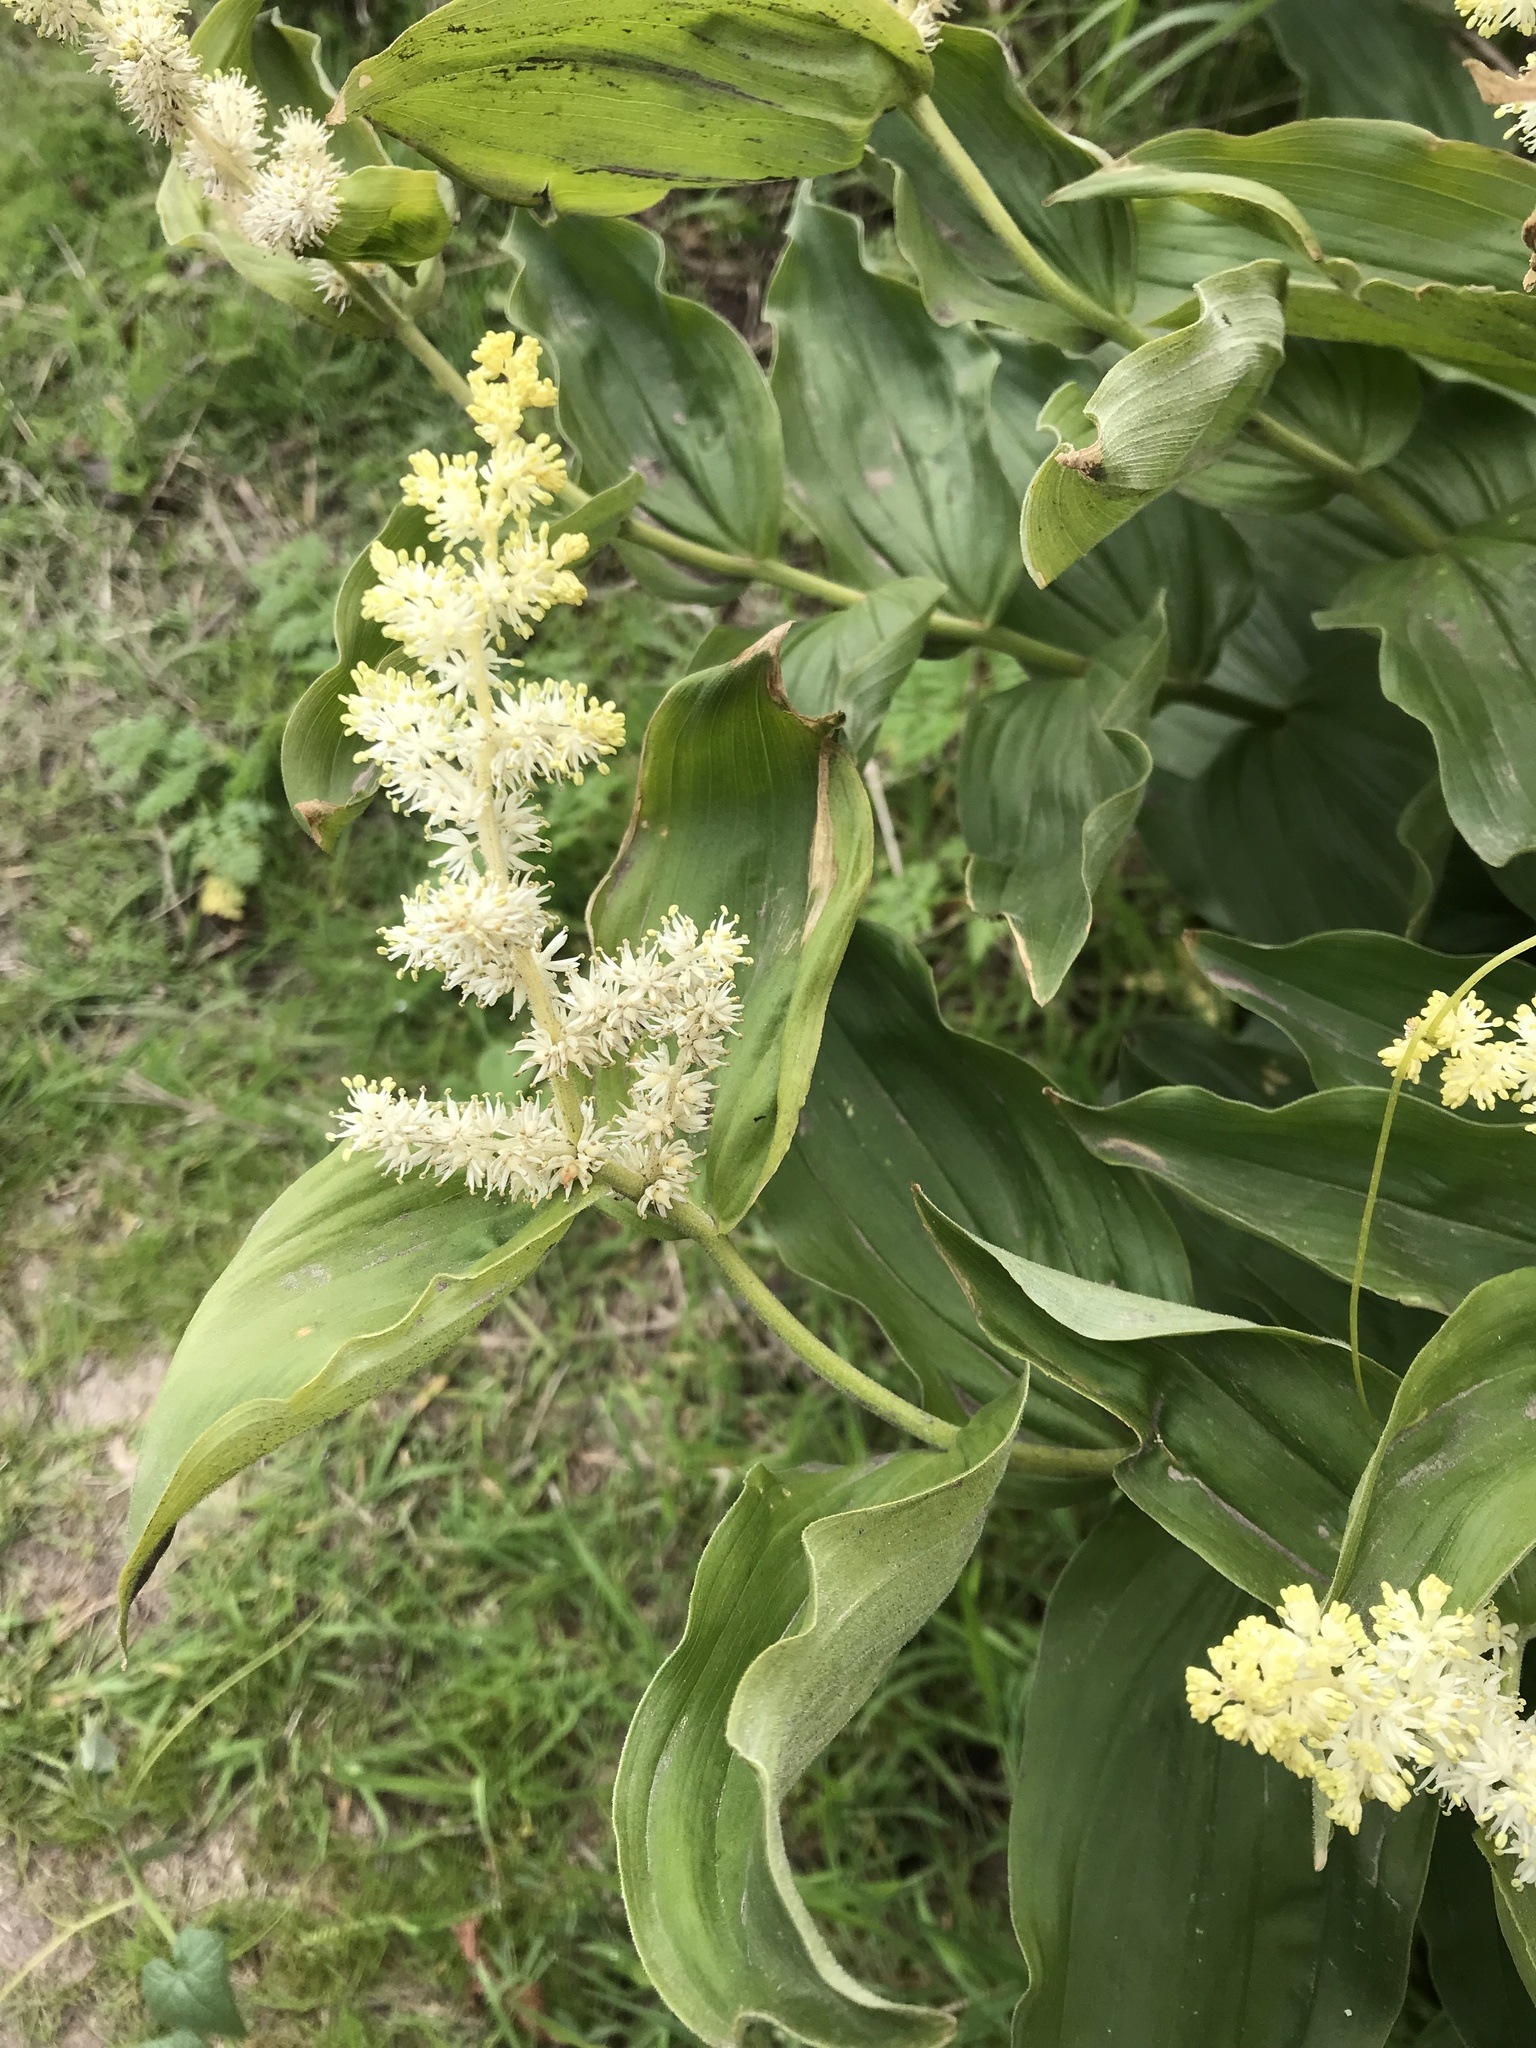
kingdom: Plantae
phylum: Tracheophyta
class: Liliopsida
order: Asparagales
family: Asparagaceae
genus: Maianthemum
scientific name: Maianthemum racemosum
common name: False spikenard
